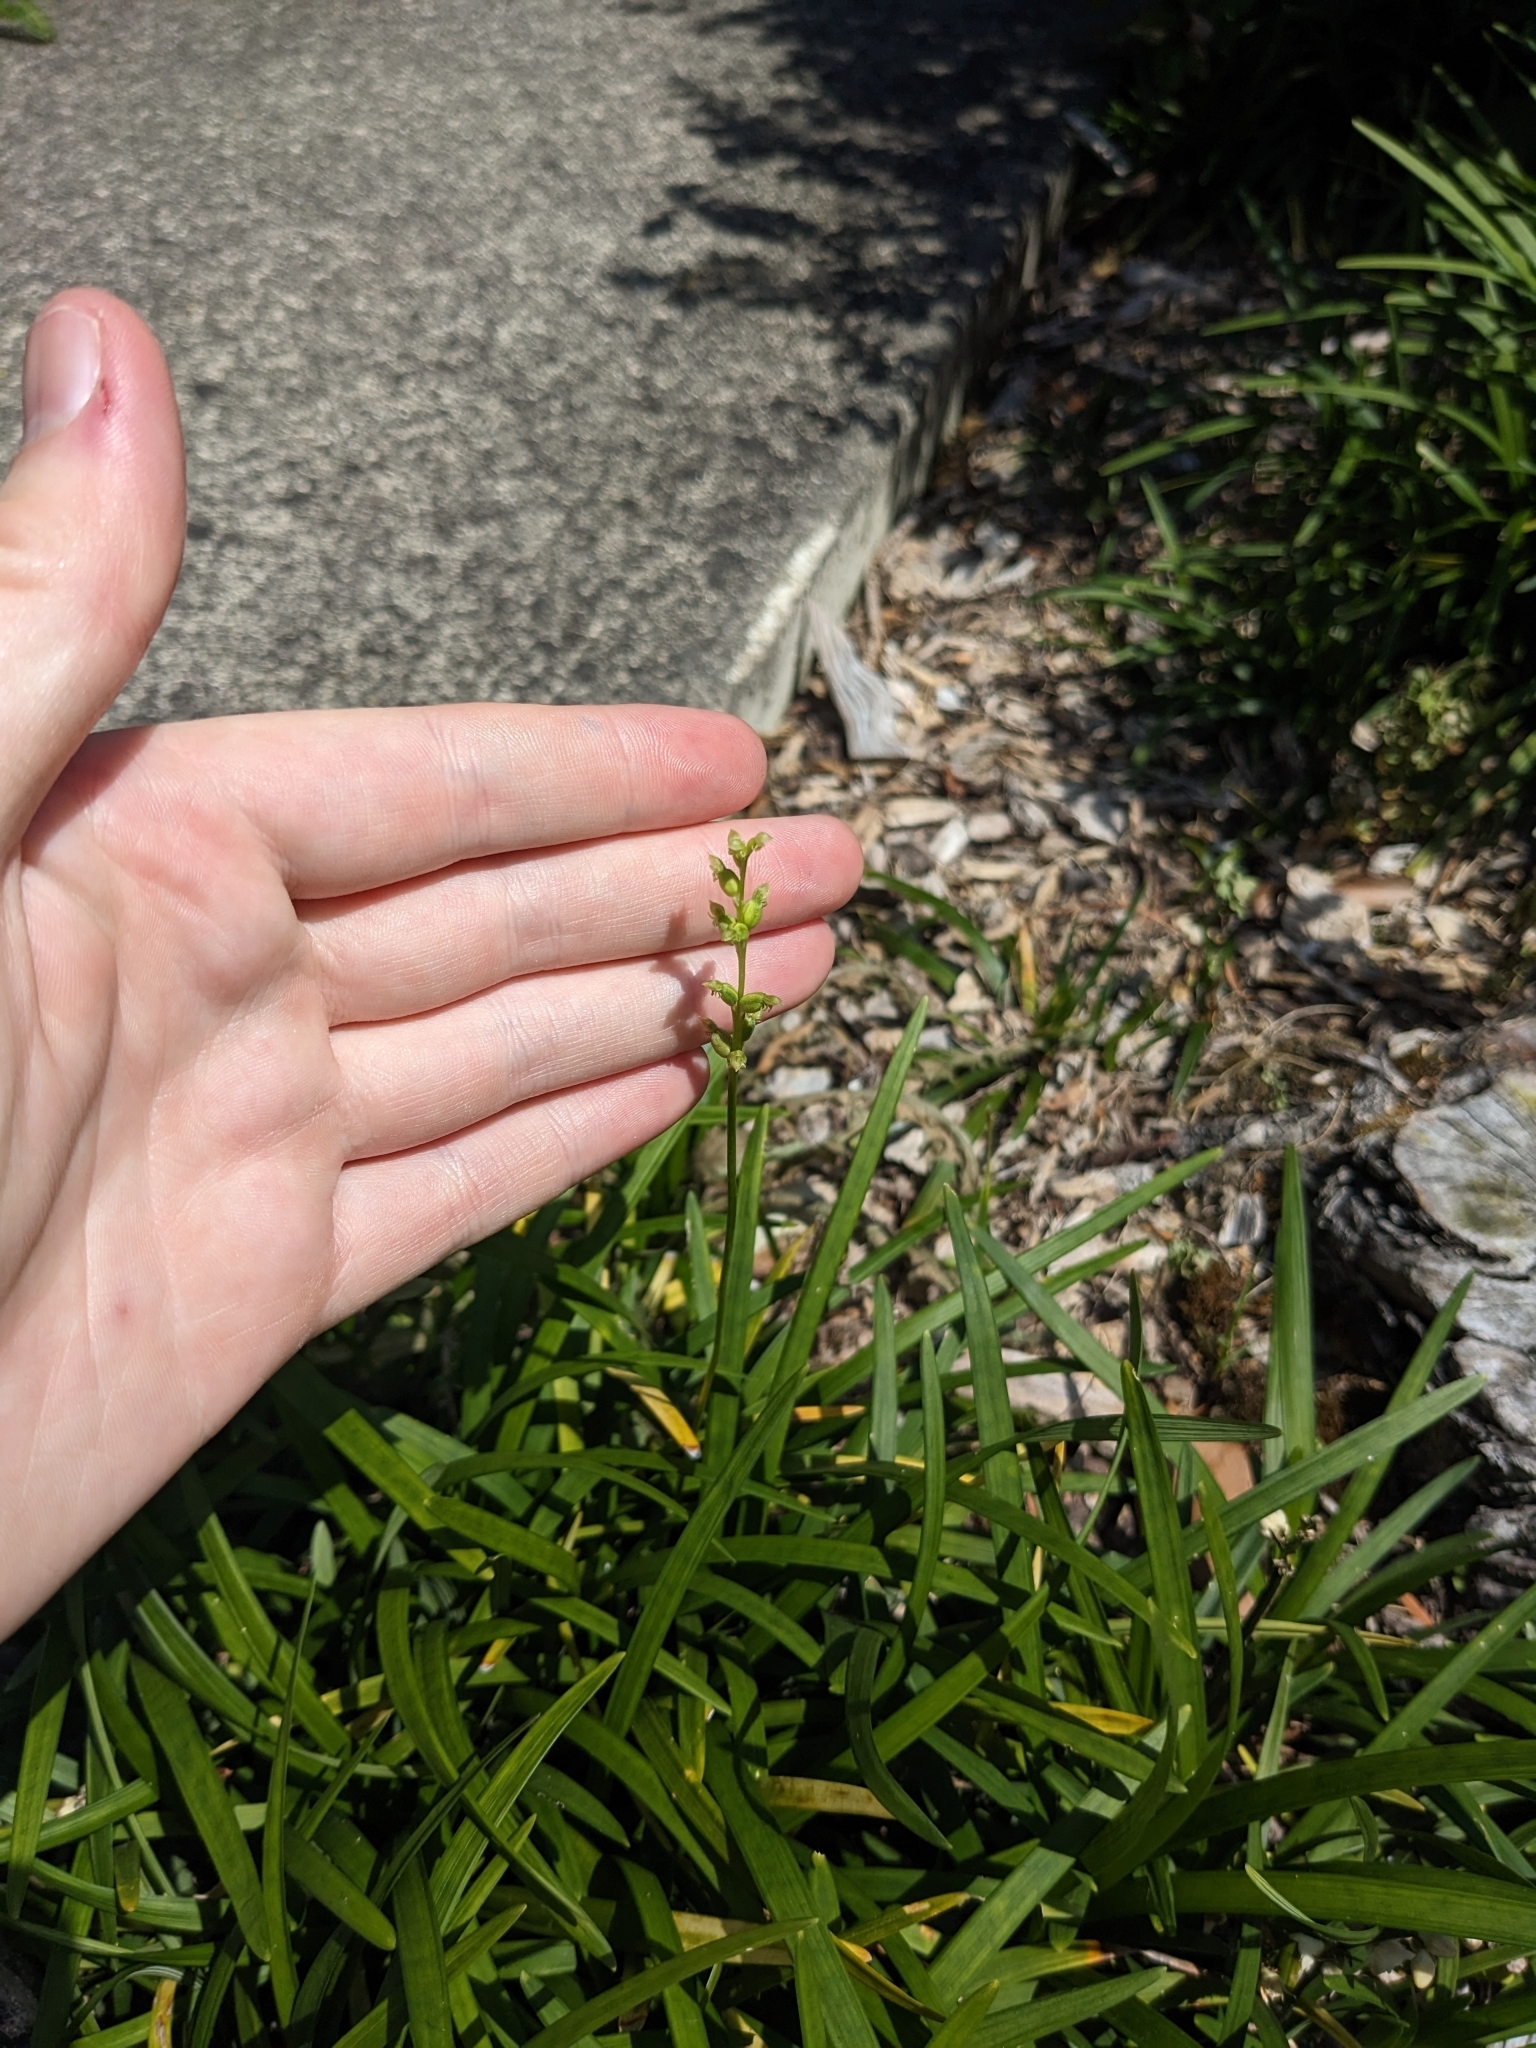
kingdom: Plantae
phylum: Tracheophyta
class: Liliopsida
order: Asparagales
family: Orchidaceae
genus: Microtis
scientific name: Microtis unifolia
